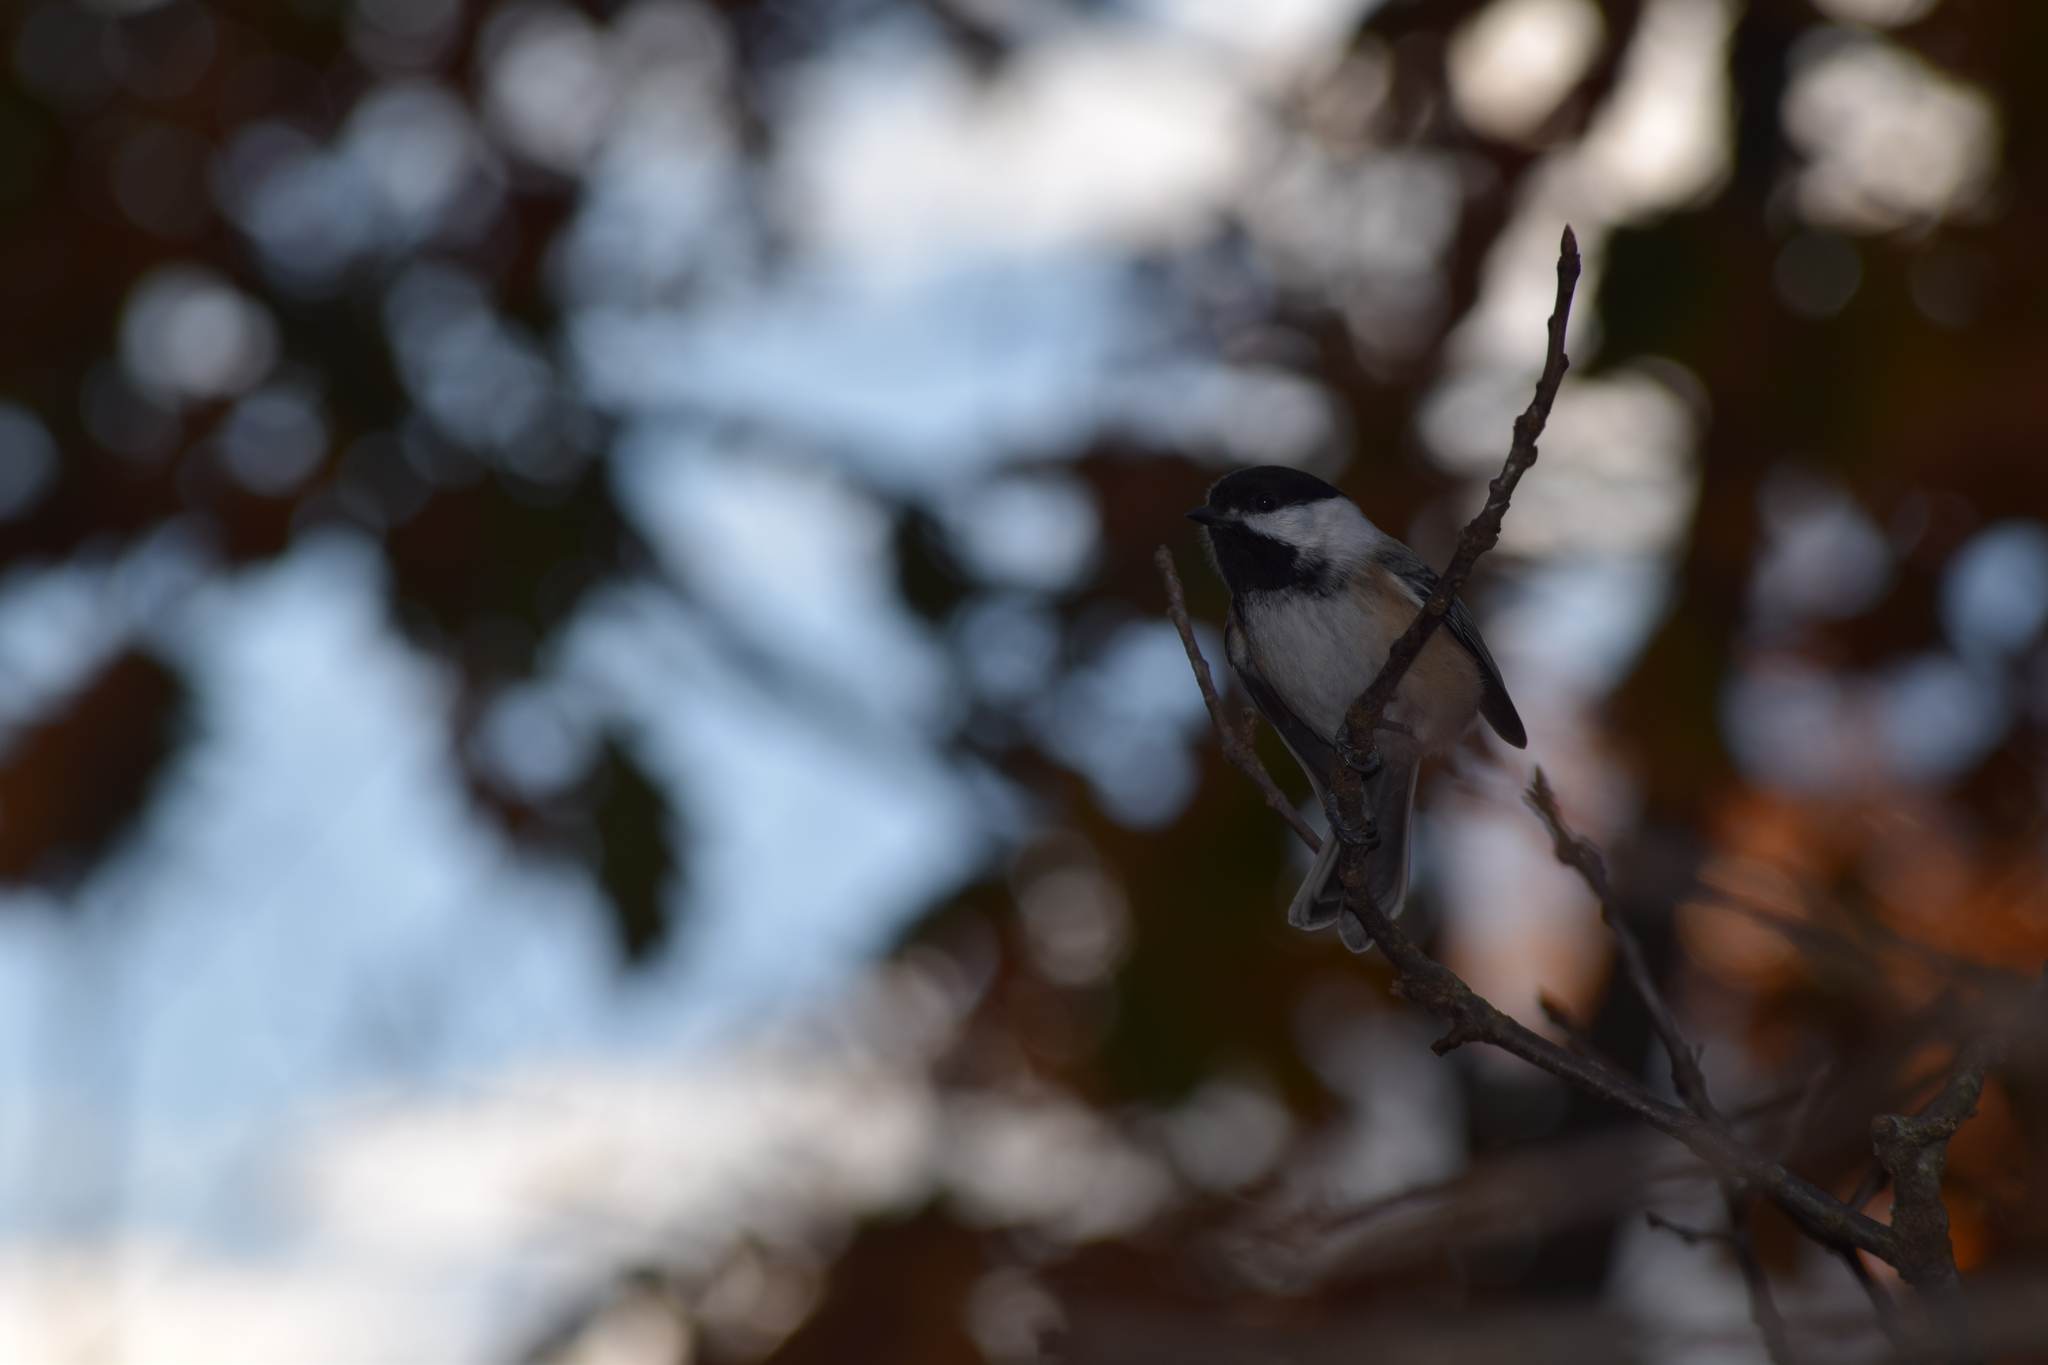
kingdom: Animalia
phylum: Chordata
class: Aves
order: Passeriformes
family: Paridae
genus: Poecile
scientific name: Poecile atricapillus
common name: Black-capped chickadee
